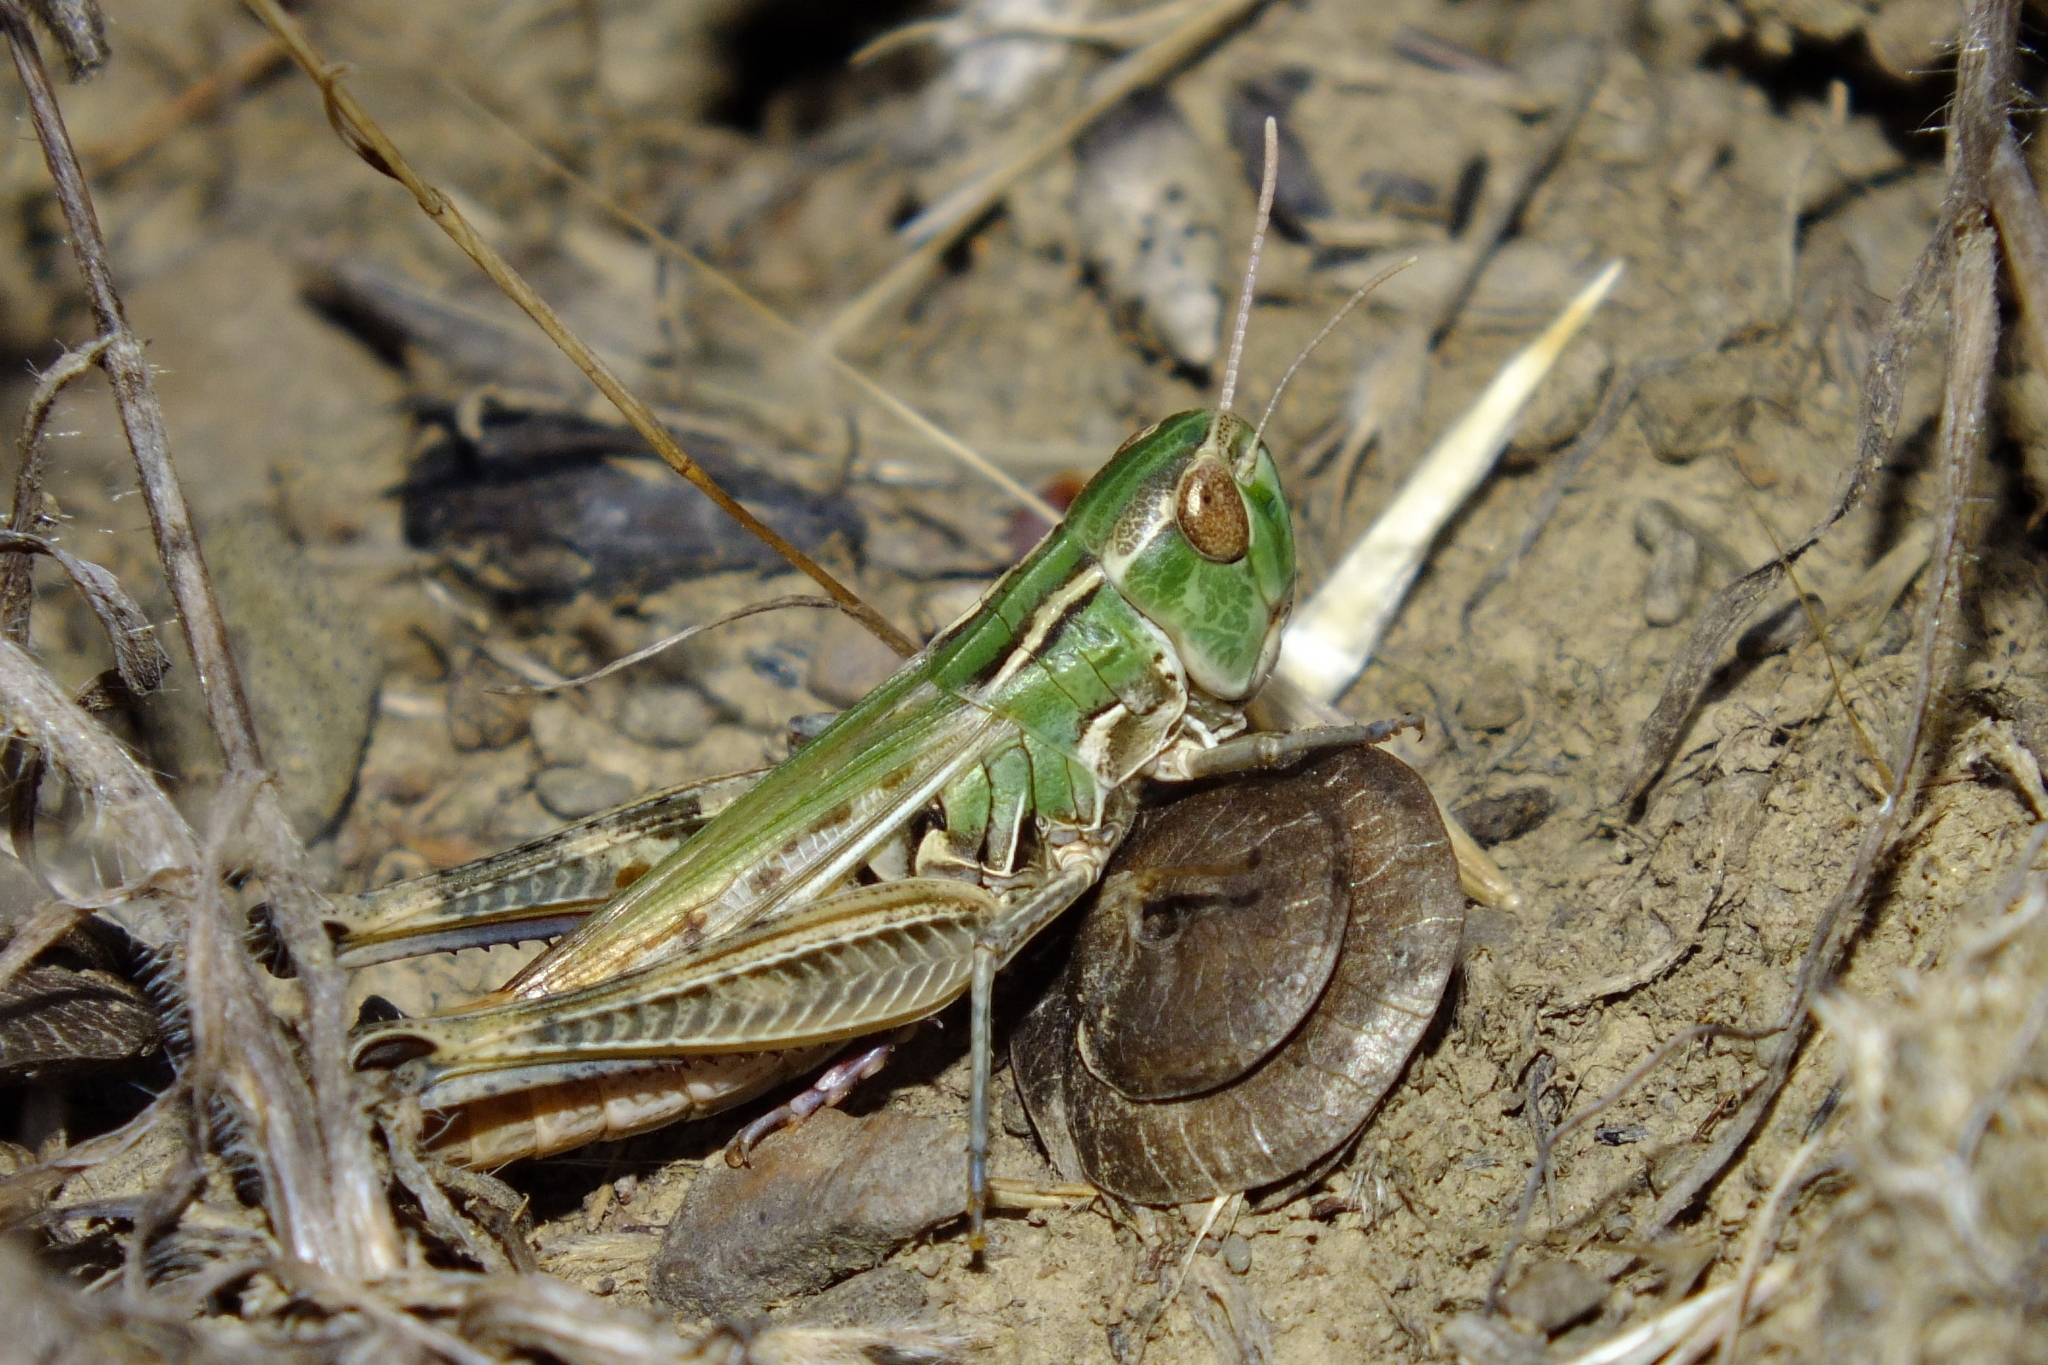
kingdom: Animalia
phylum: Arthropoda
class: Insecta
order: Orthoptera
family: Acrididae
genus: Stenobothrus
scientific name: Stenobothrus nigromaculatus
